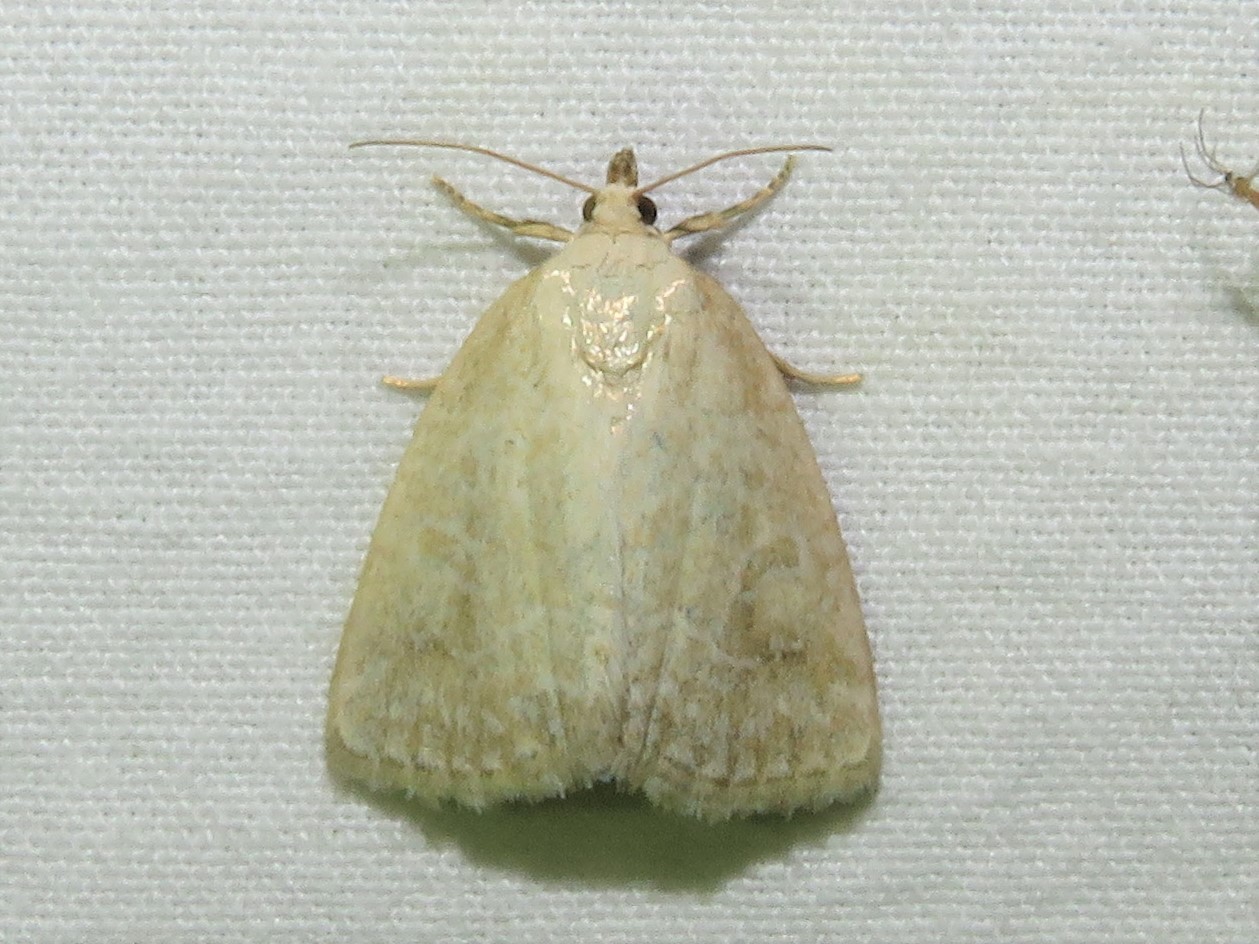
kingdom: Animalia
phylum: Arthropoda
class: Insecta
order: Lepidoptera
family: Noctuidae
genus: Protodeltote
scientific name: Protodeltote albidula
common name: Pale glyph
